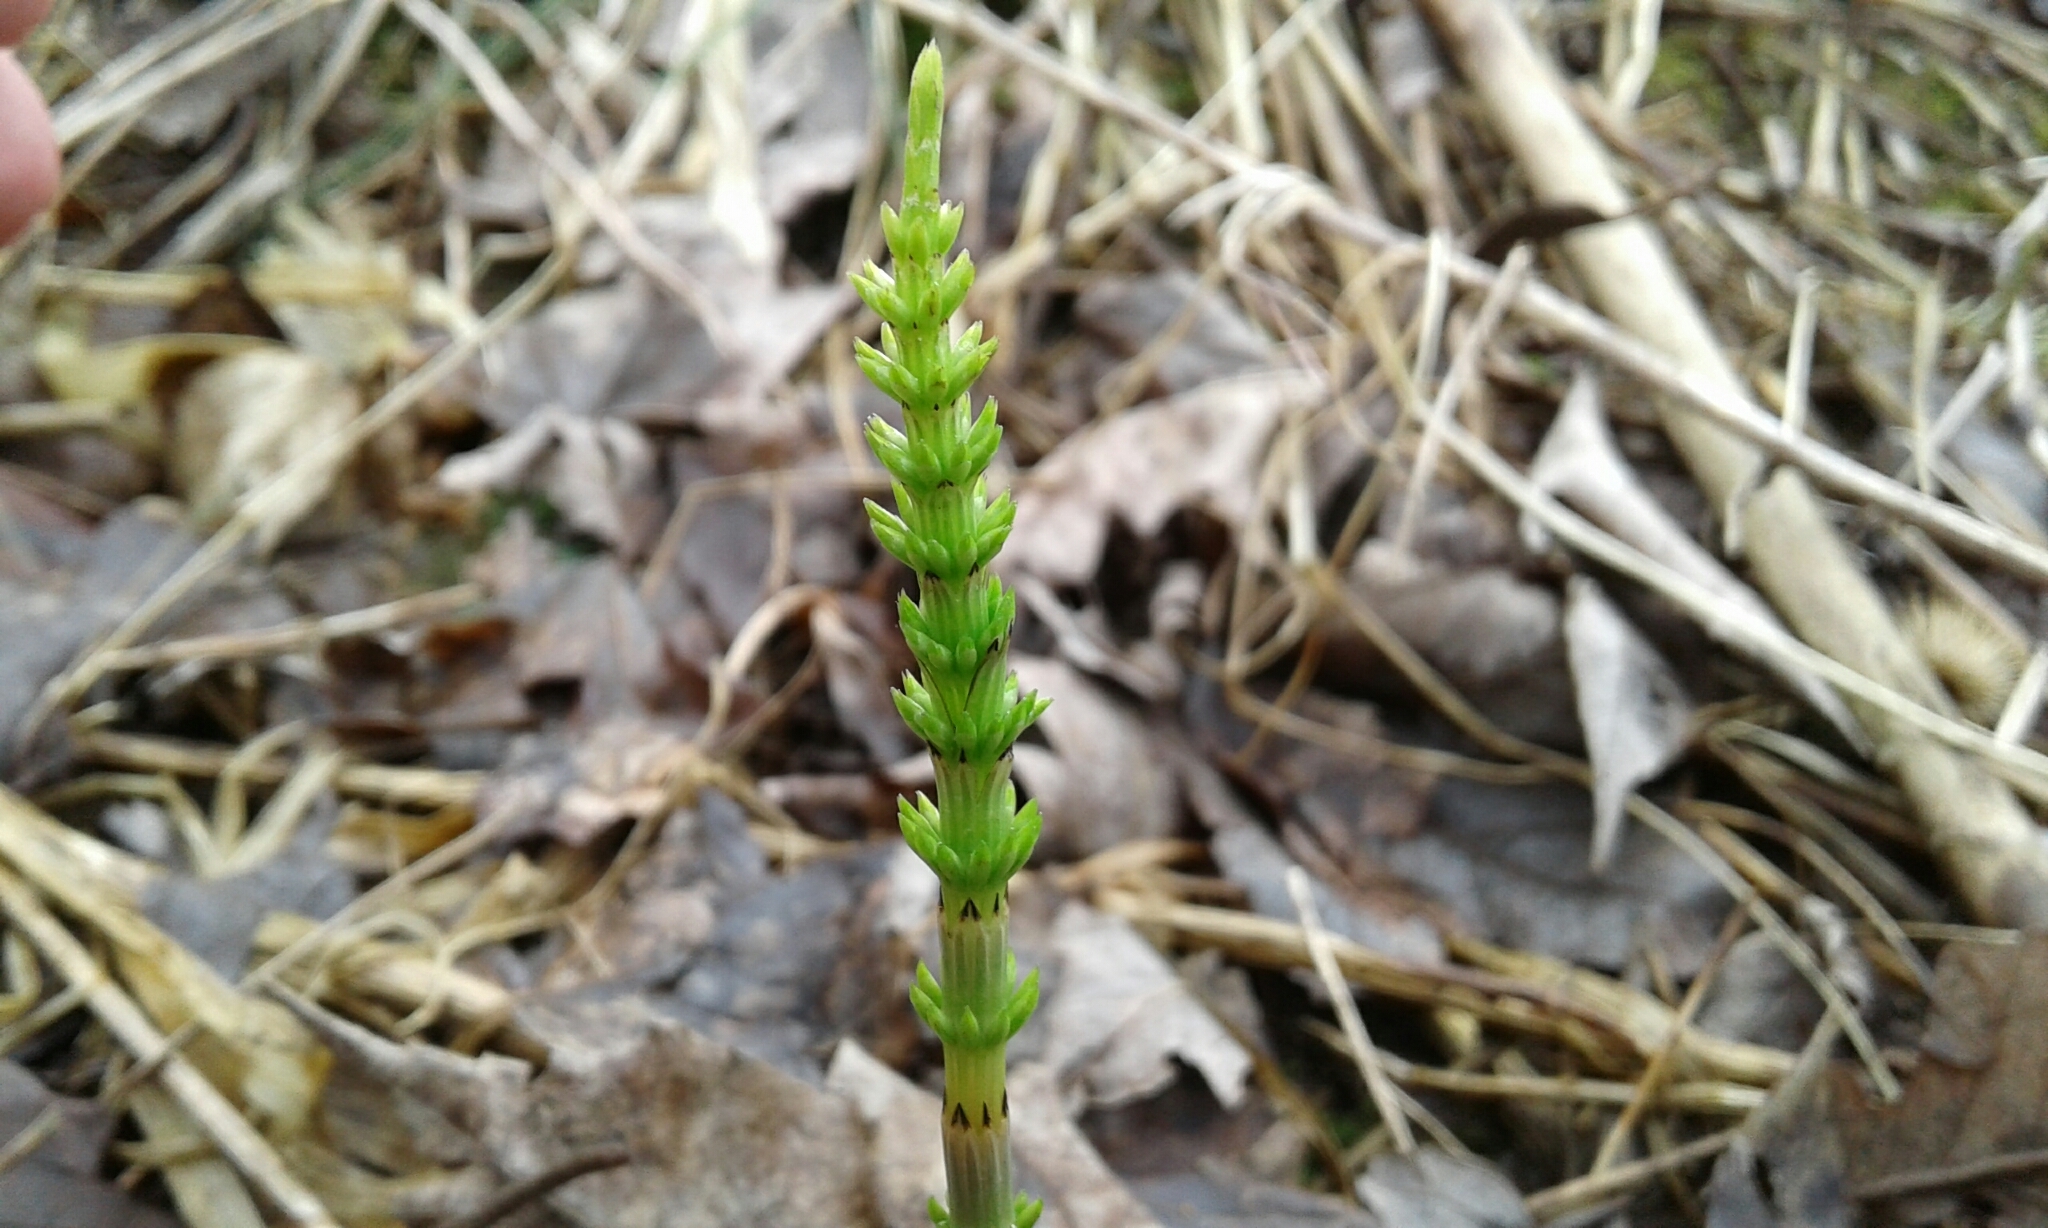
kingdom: Plantae
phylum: Tracheophyta
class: Polypodiopsida
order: Equisetales
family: Equisetaceae
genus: Equisetum
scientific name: Equisetum arvense
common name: Field horsetail
